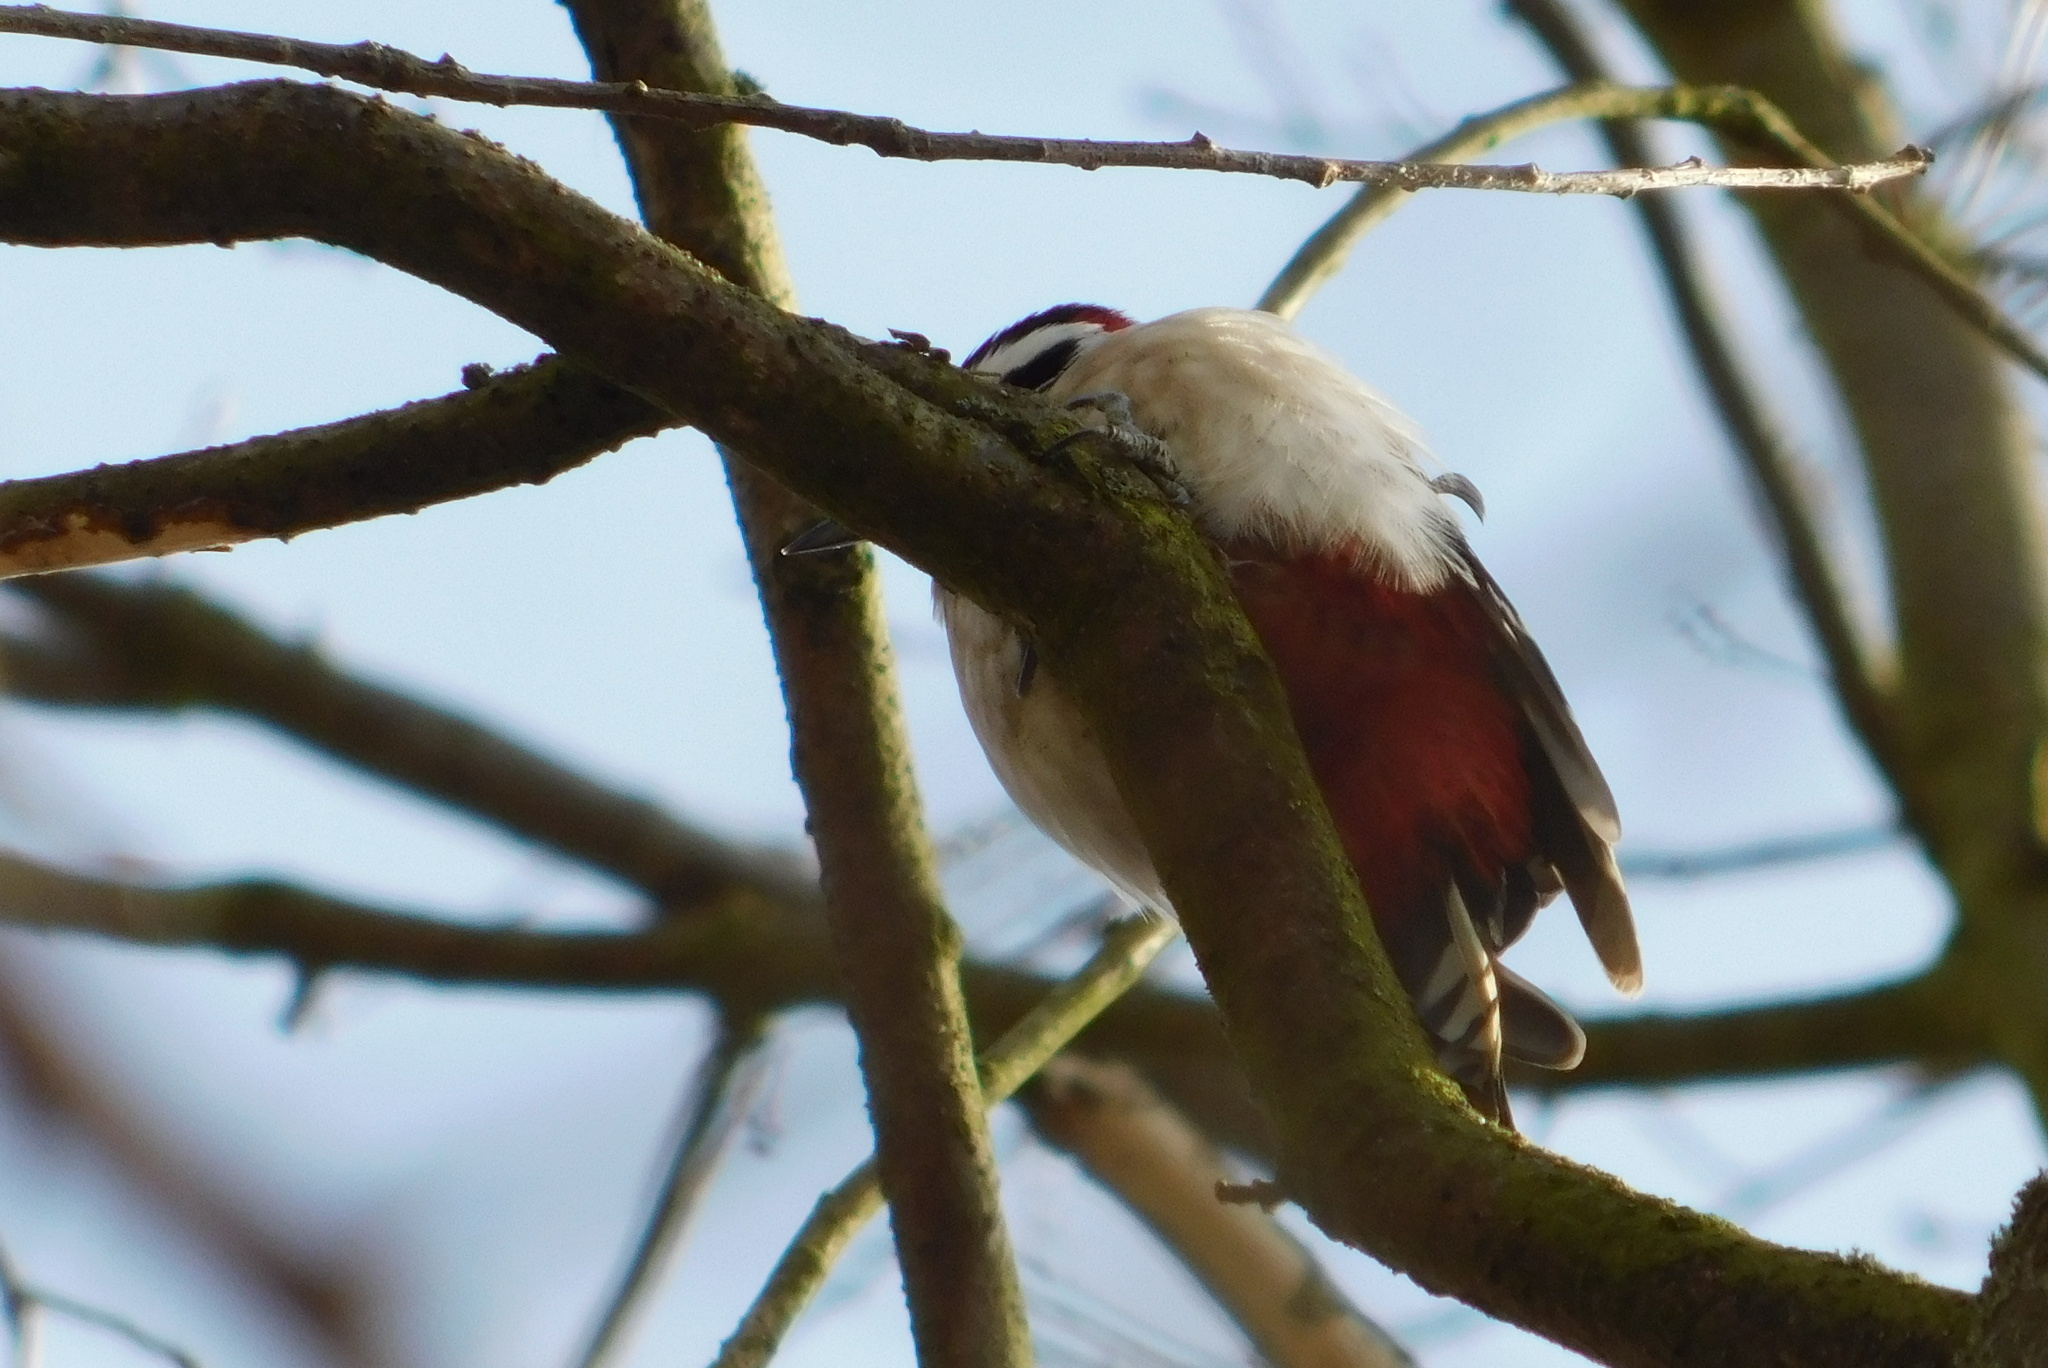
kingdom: Animalia
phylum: Chordata
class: Aves
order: Piciformes
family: Picidae
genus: Dendrocopos
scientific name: Dendrocopos major
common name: Great spotted woodpecker
